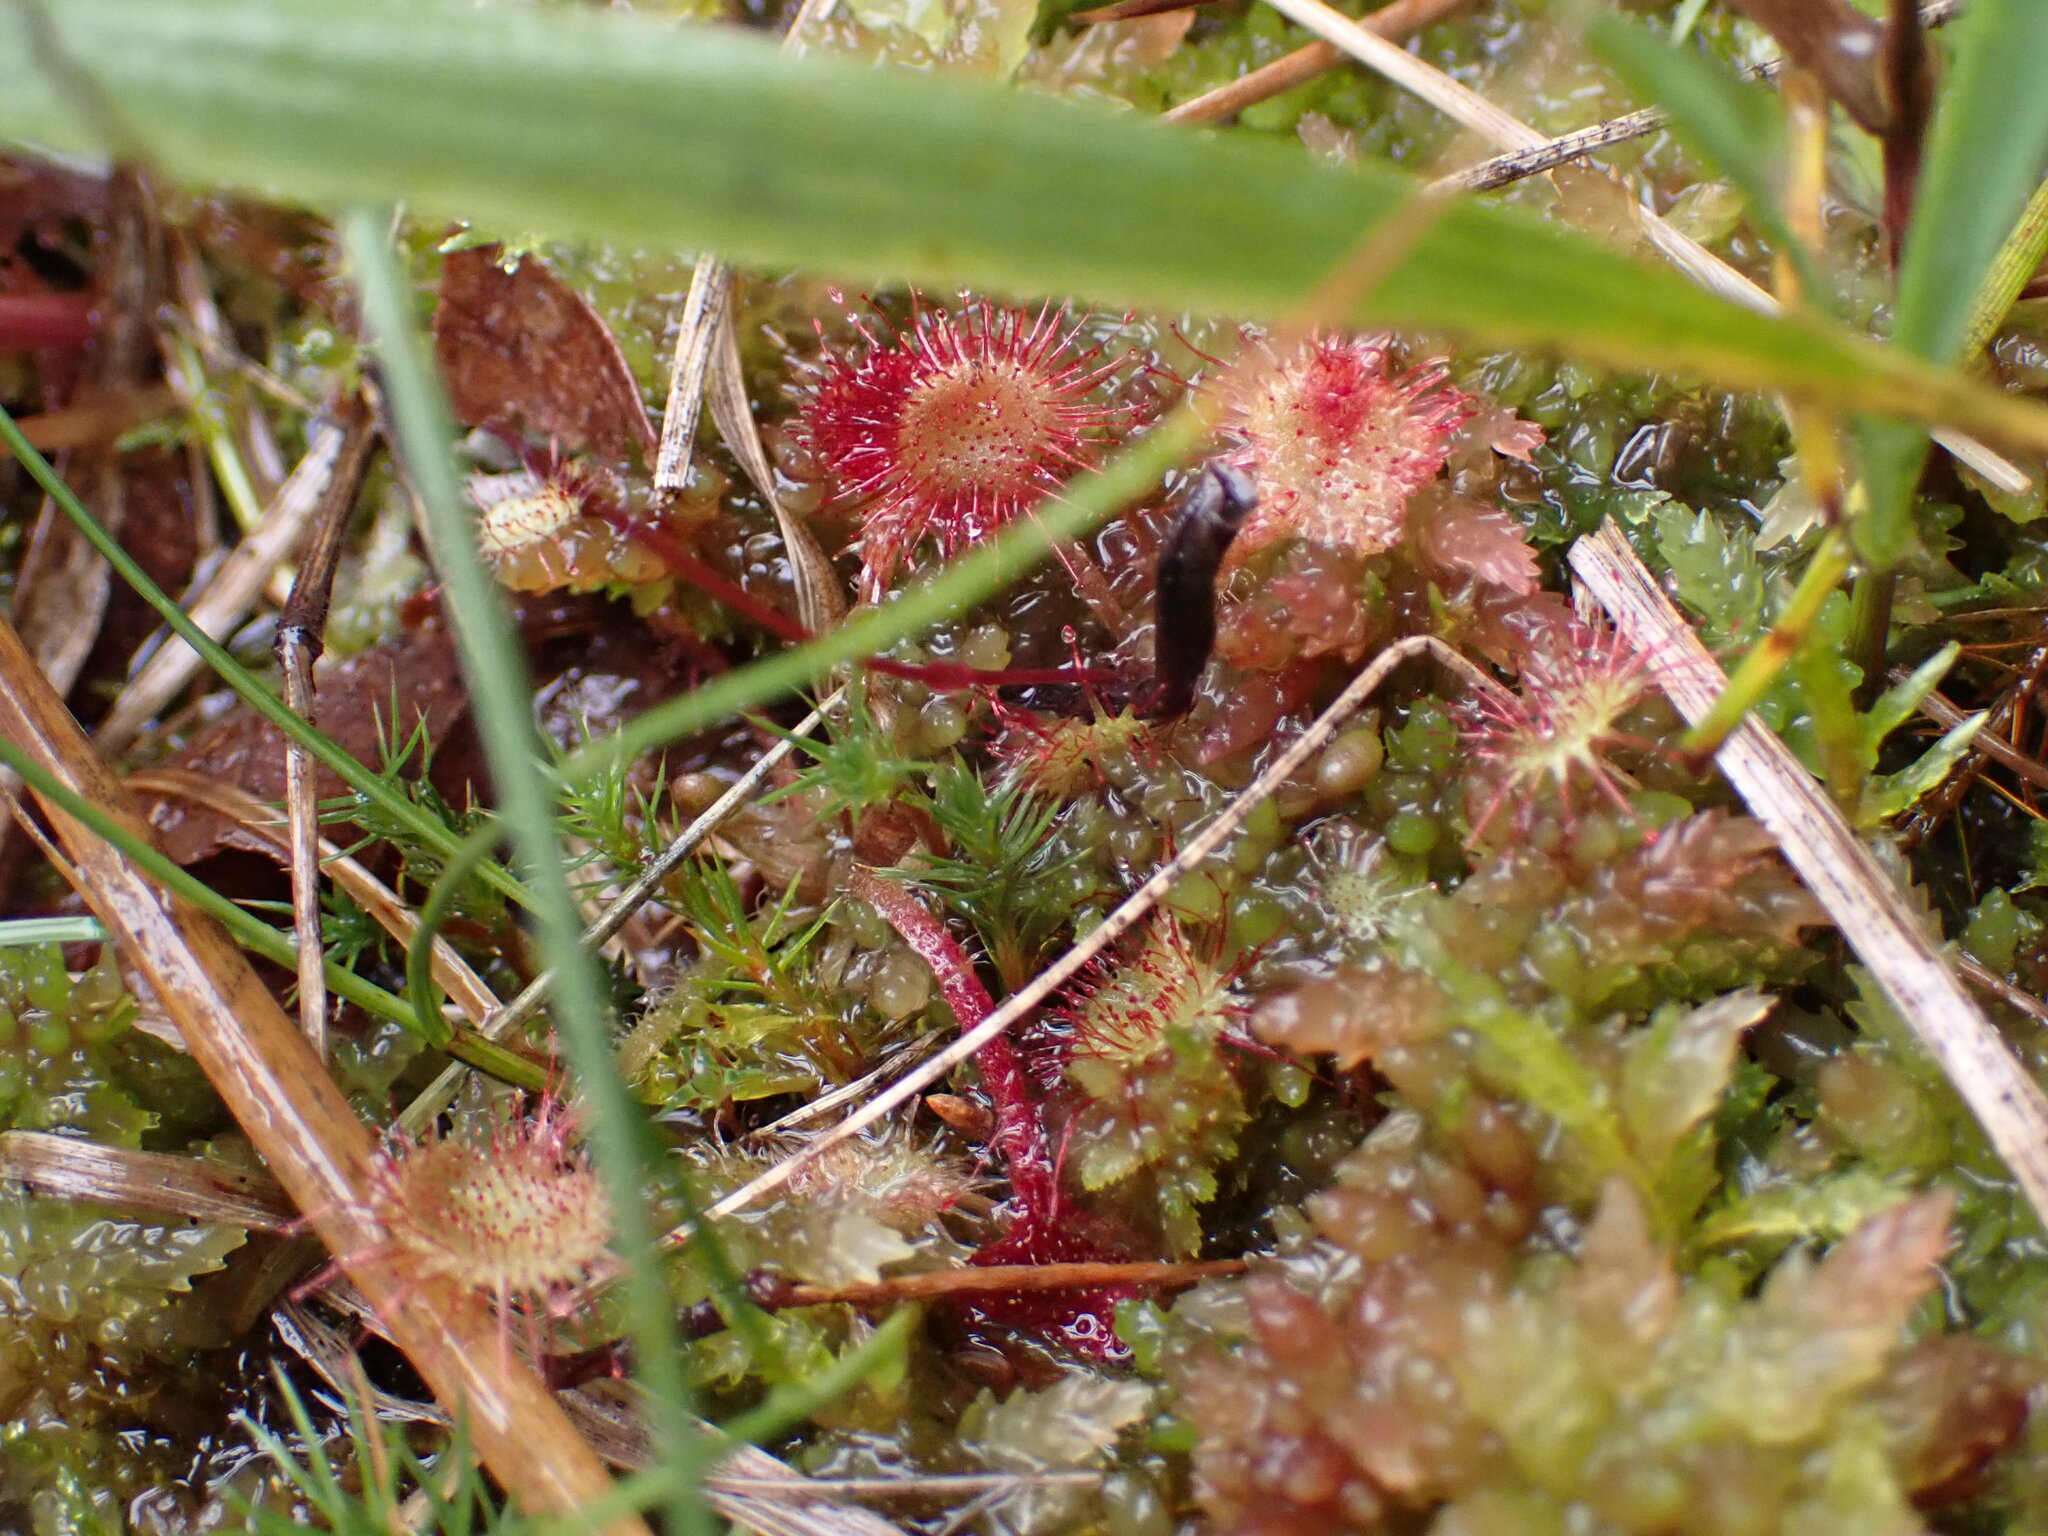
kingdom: Plantae
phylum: Tracheophyta
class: Magnoliopsida
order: Caryophyllales
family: Droseraceae
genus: Drosera
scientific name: Drosera rotundifolia
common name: Round-leaved sundew
